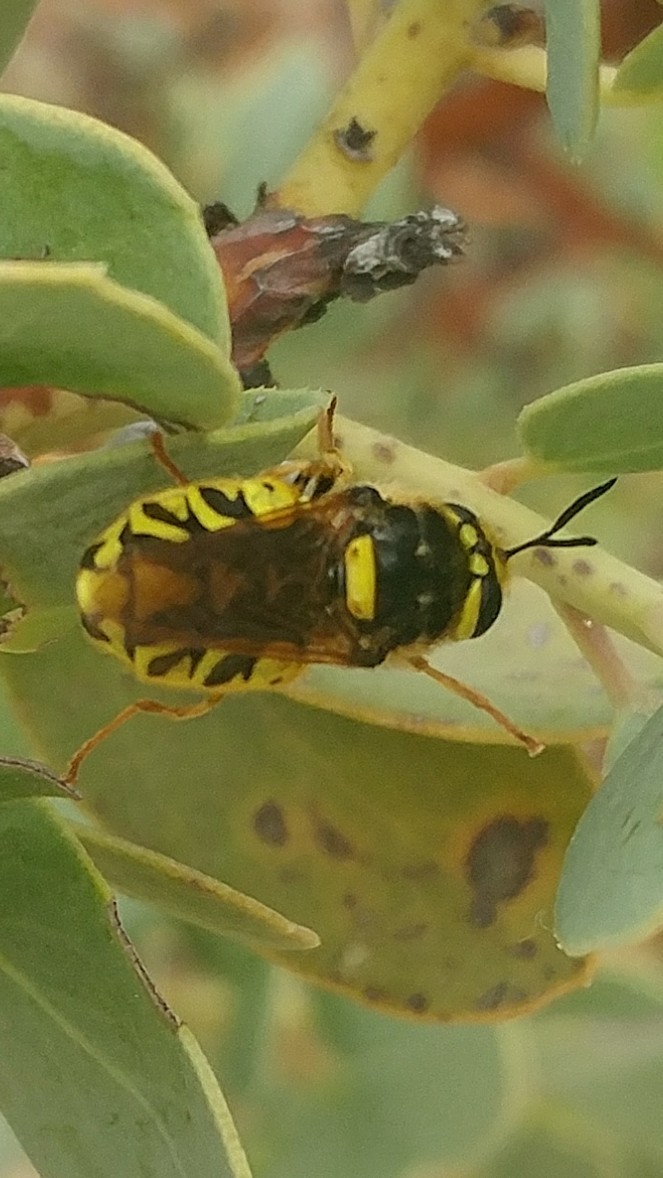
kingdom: Animalia
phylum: Arthropoda
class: Insecta
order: Diptera
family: Stratiomyidae
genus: Stratiomys
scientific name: Stratiomys maculosa
